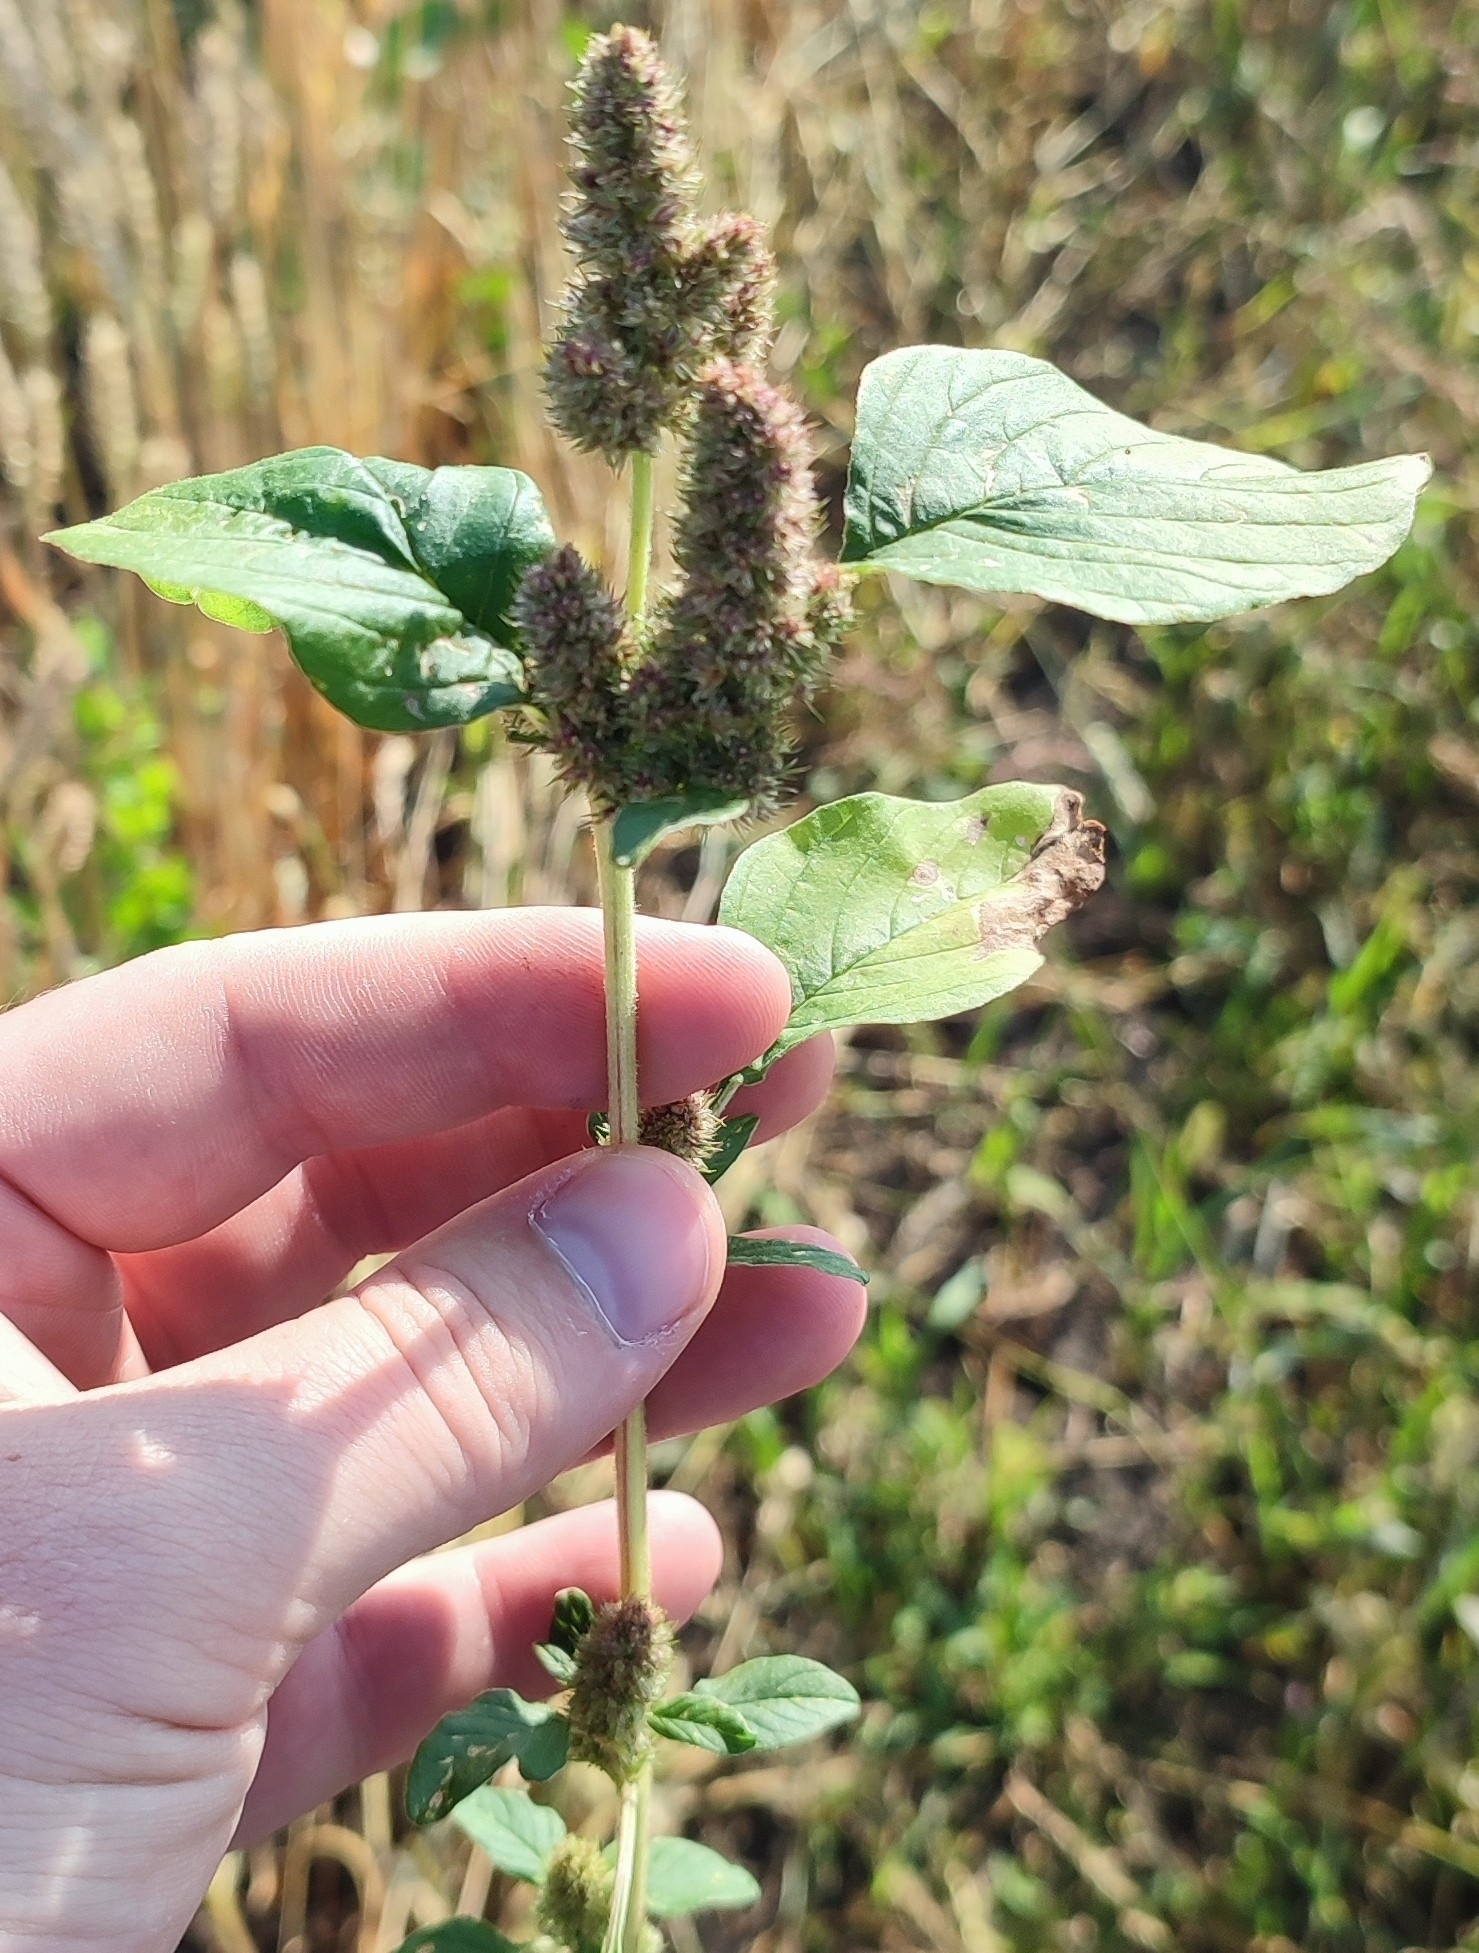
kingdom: Plantae
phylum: Tracheophyta
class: Magnoliopsida
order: Caryophyllales
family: Amaranthaceae
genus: Amaranthus
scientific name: Amaranthus retroflexus
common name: Redroot amaranth
